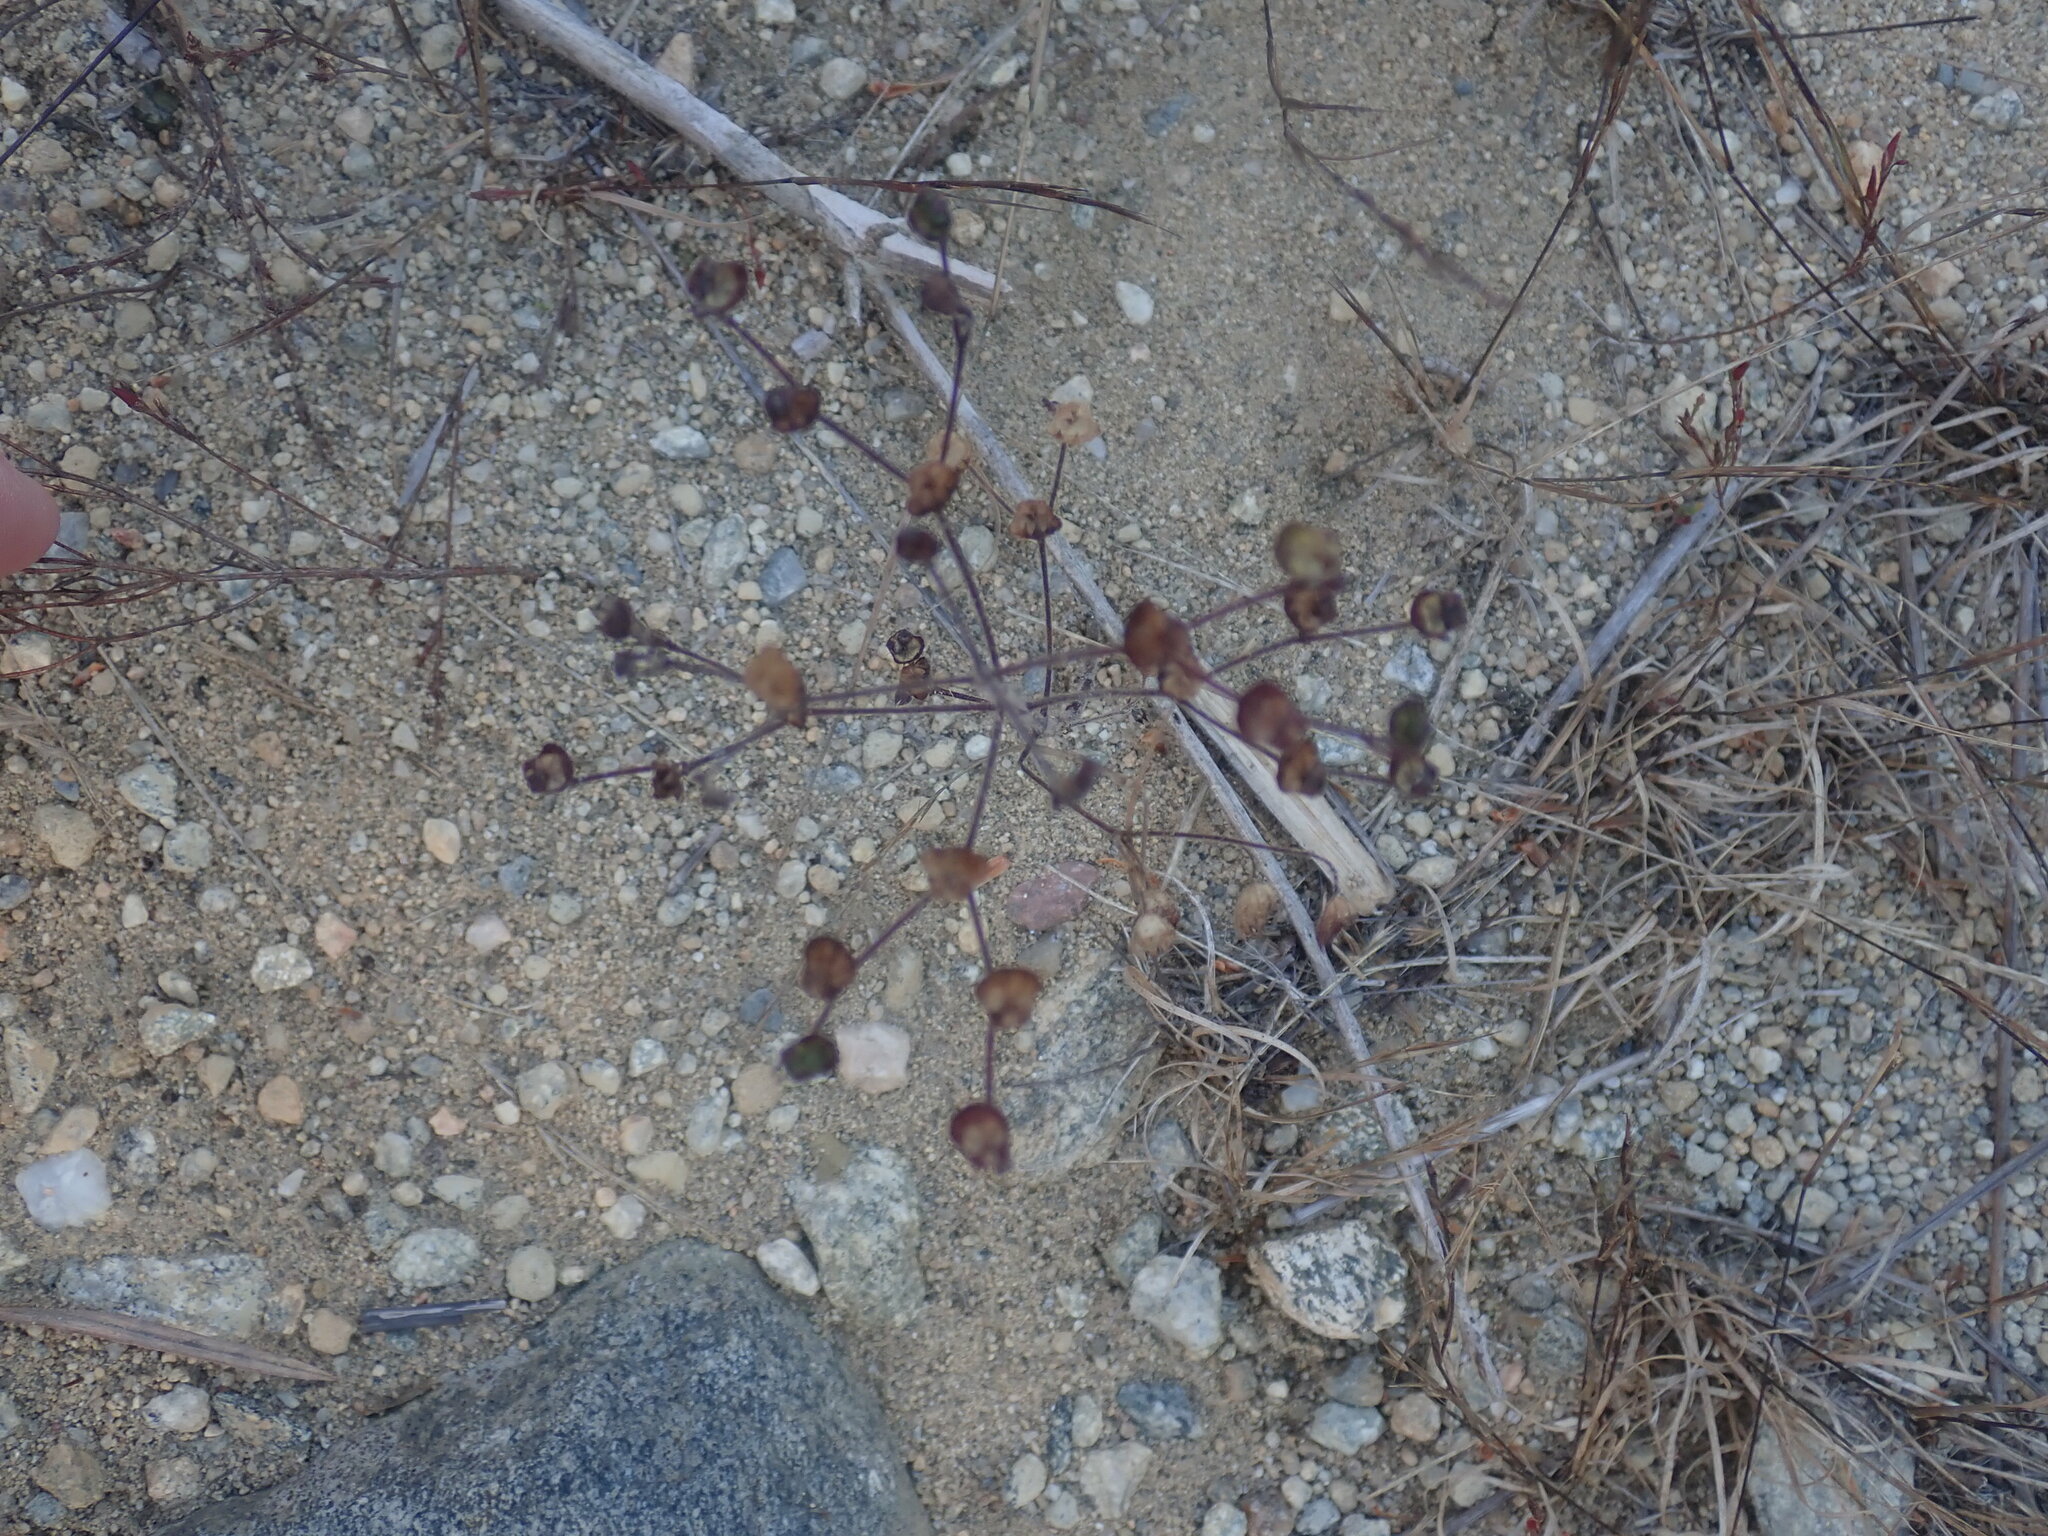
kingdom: Plantae
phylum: Tracheophyta
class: Magnoliopsida
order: Lamiales
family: Lamiaceae
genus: Trichostema
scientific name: Trichostema dichotomum
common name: Bastard pennyroyal
